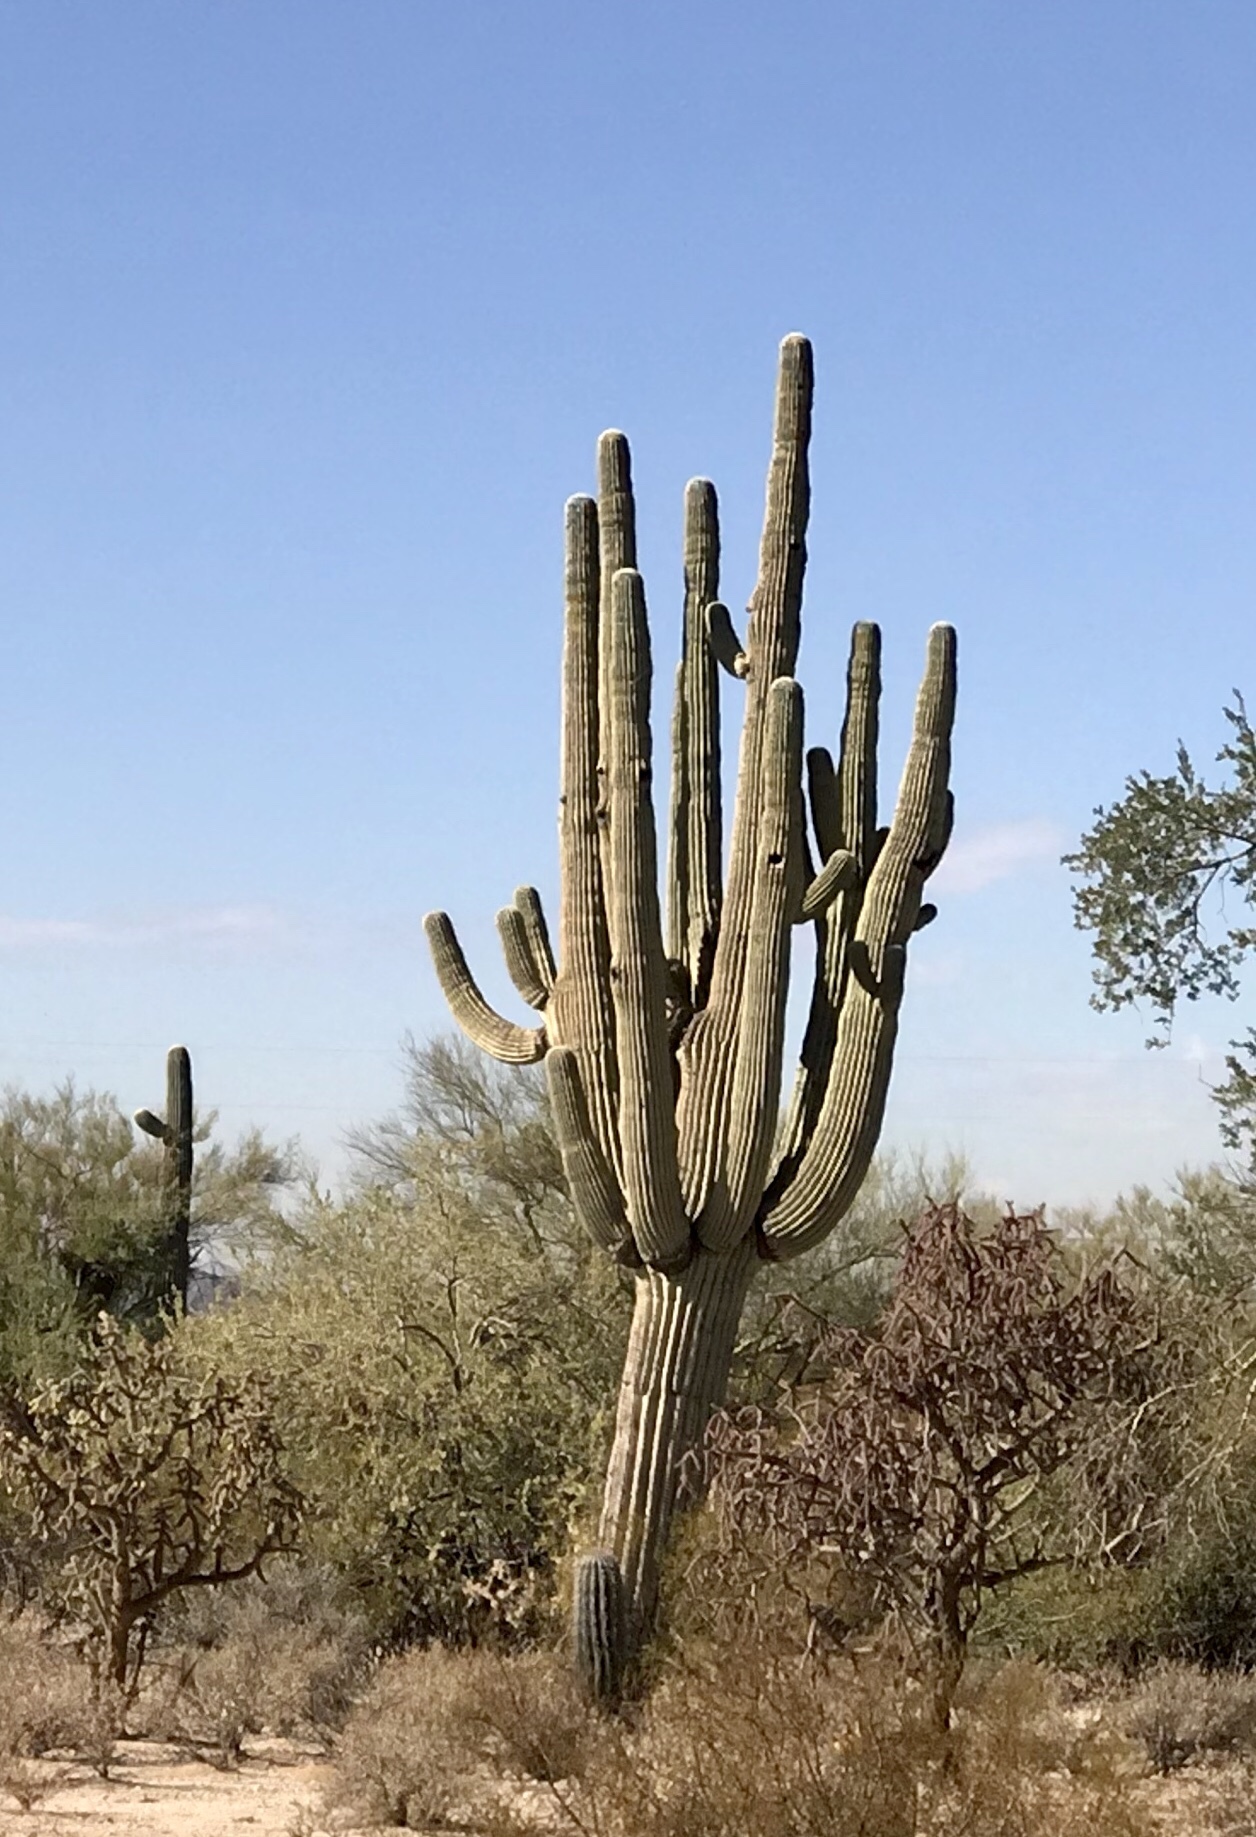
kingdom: Plantae
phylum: Tracheophyta
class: Magnoliopsida
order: Caryophyllales
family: Cactaceae
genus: Carnegiea
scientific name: Carnegiea gigantea
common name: Saguaro
